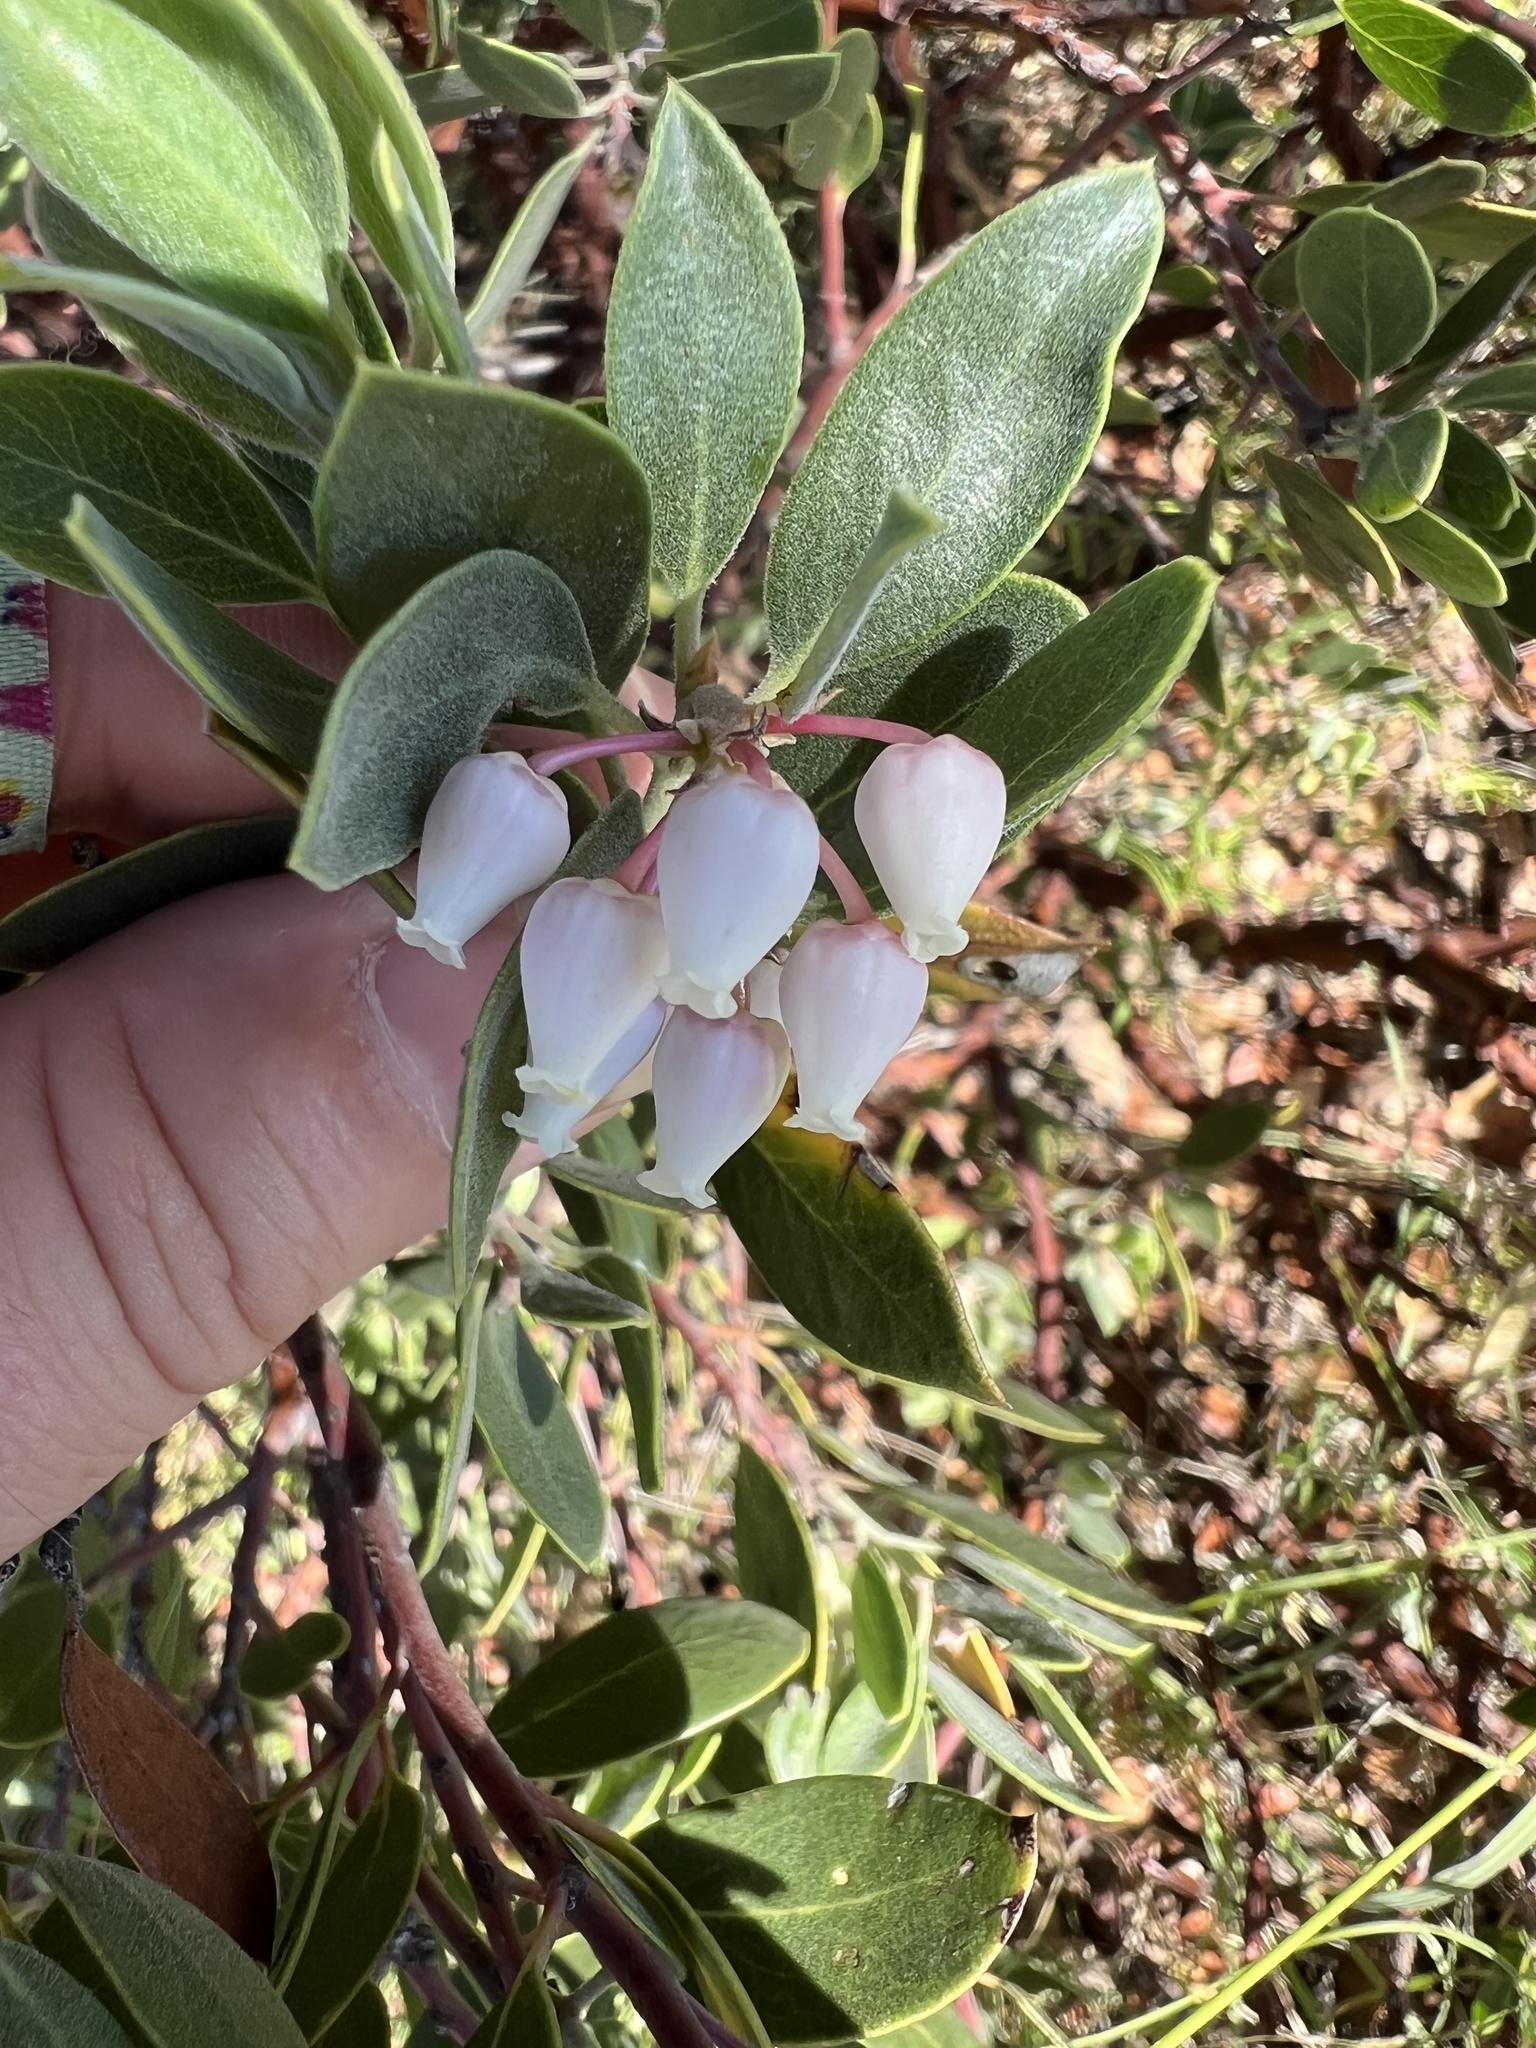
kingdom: Plantae
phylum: Tracheophyta
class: Magnoliopsida
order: Ericales
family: Ericaceae
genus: Arctostaphylos
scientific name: Arctostaphylos pungens
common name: Mexican manzanita
